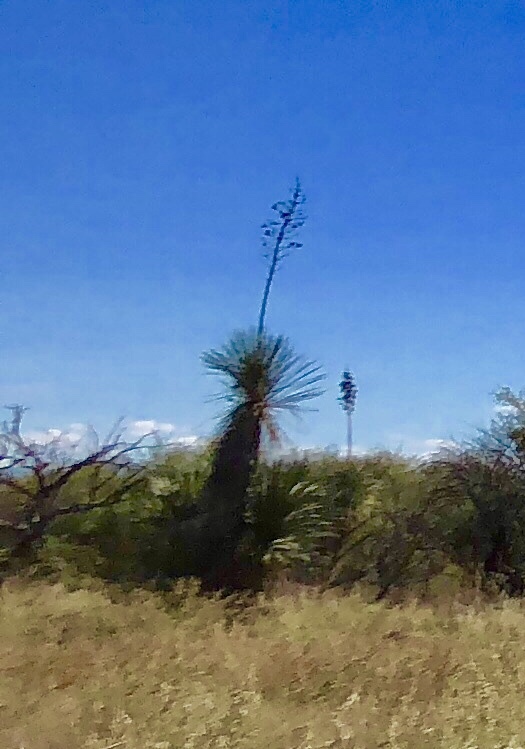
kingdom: Plantae
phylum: Tracheophyta
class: Liliopsida
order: Asparagales
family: Asparagaceae
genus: Yucca
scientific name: Yucca elata
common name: Palmella
